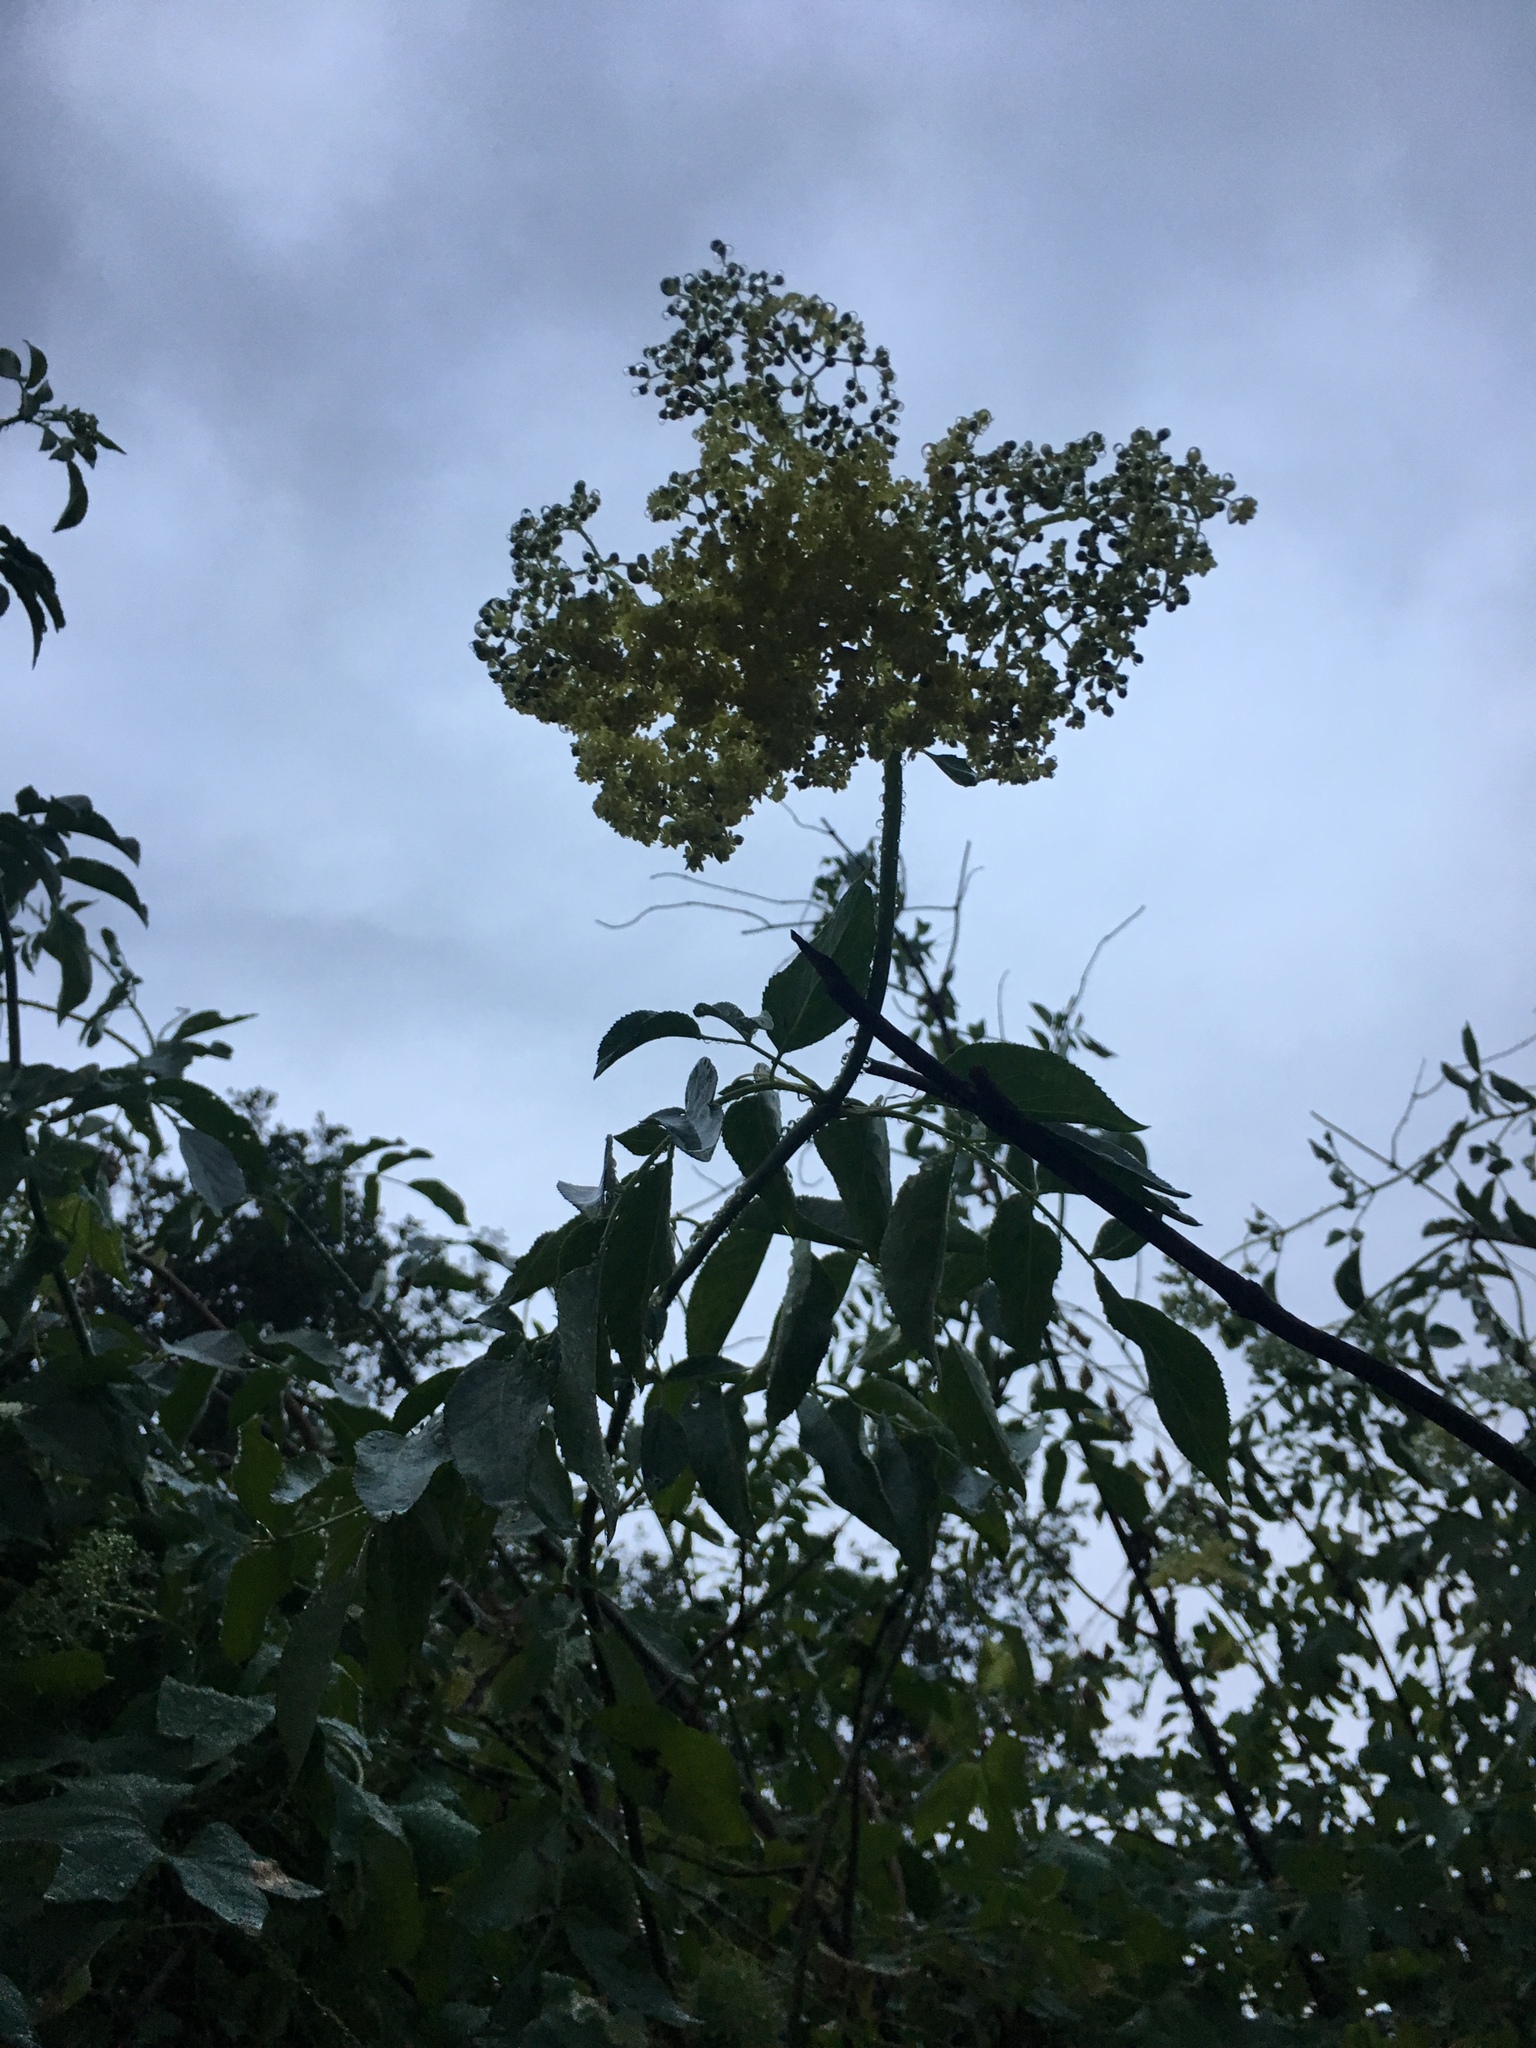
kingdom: Plantae
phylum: Tracheophyta
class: Magnoliopsida
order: Dipsacales
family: Viburnaceae
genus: Sambucus
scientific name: Sambucus cerulea
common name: Blue elder
